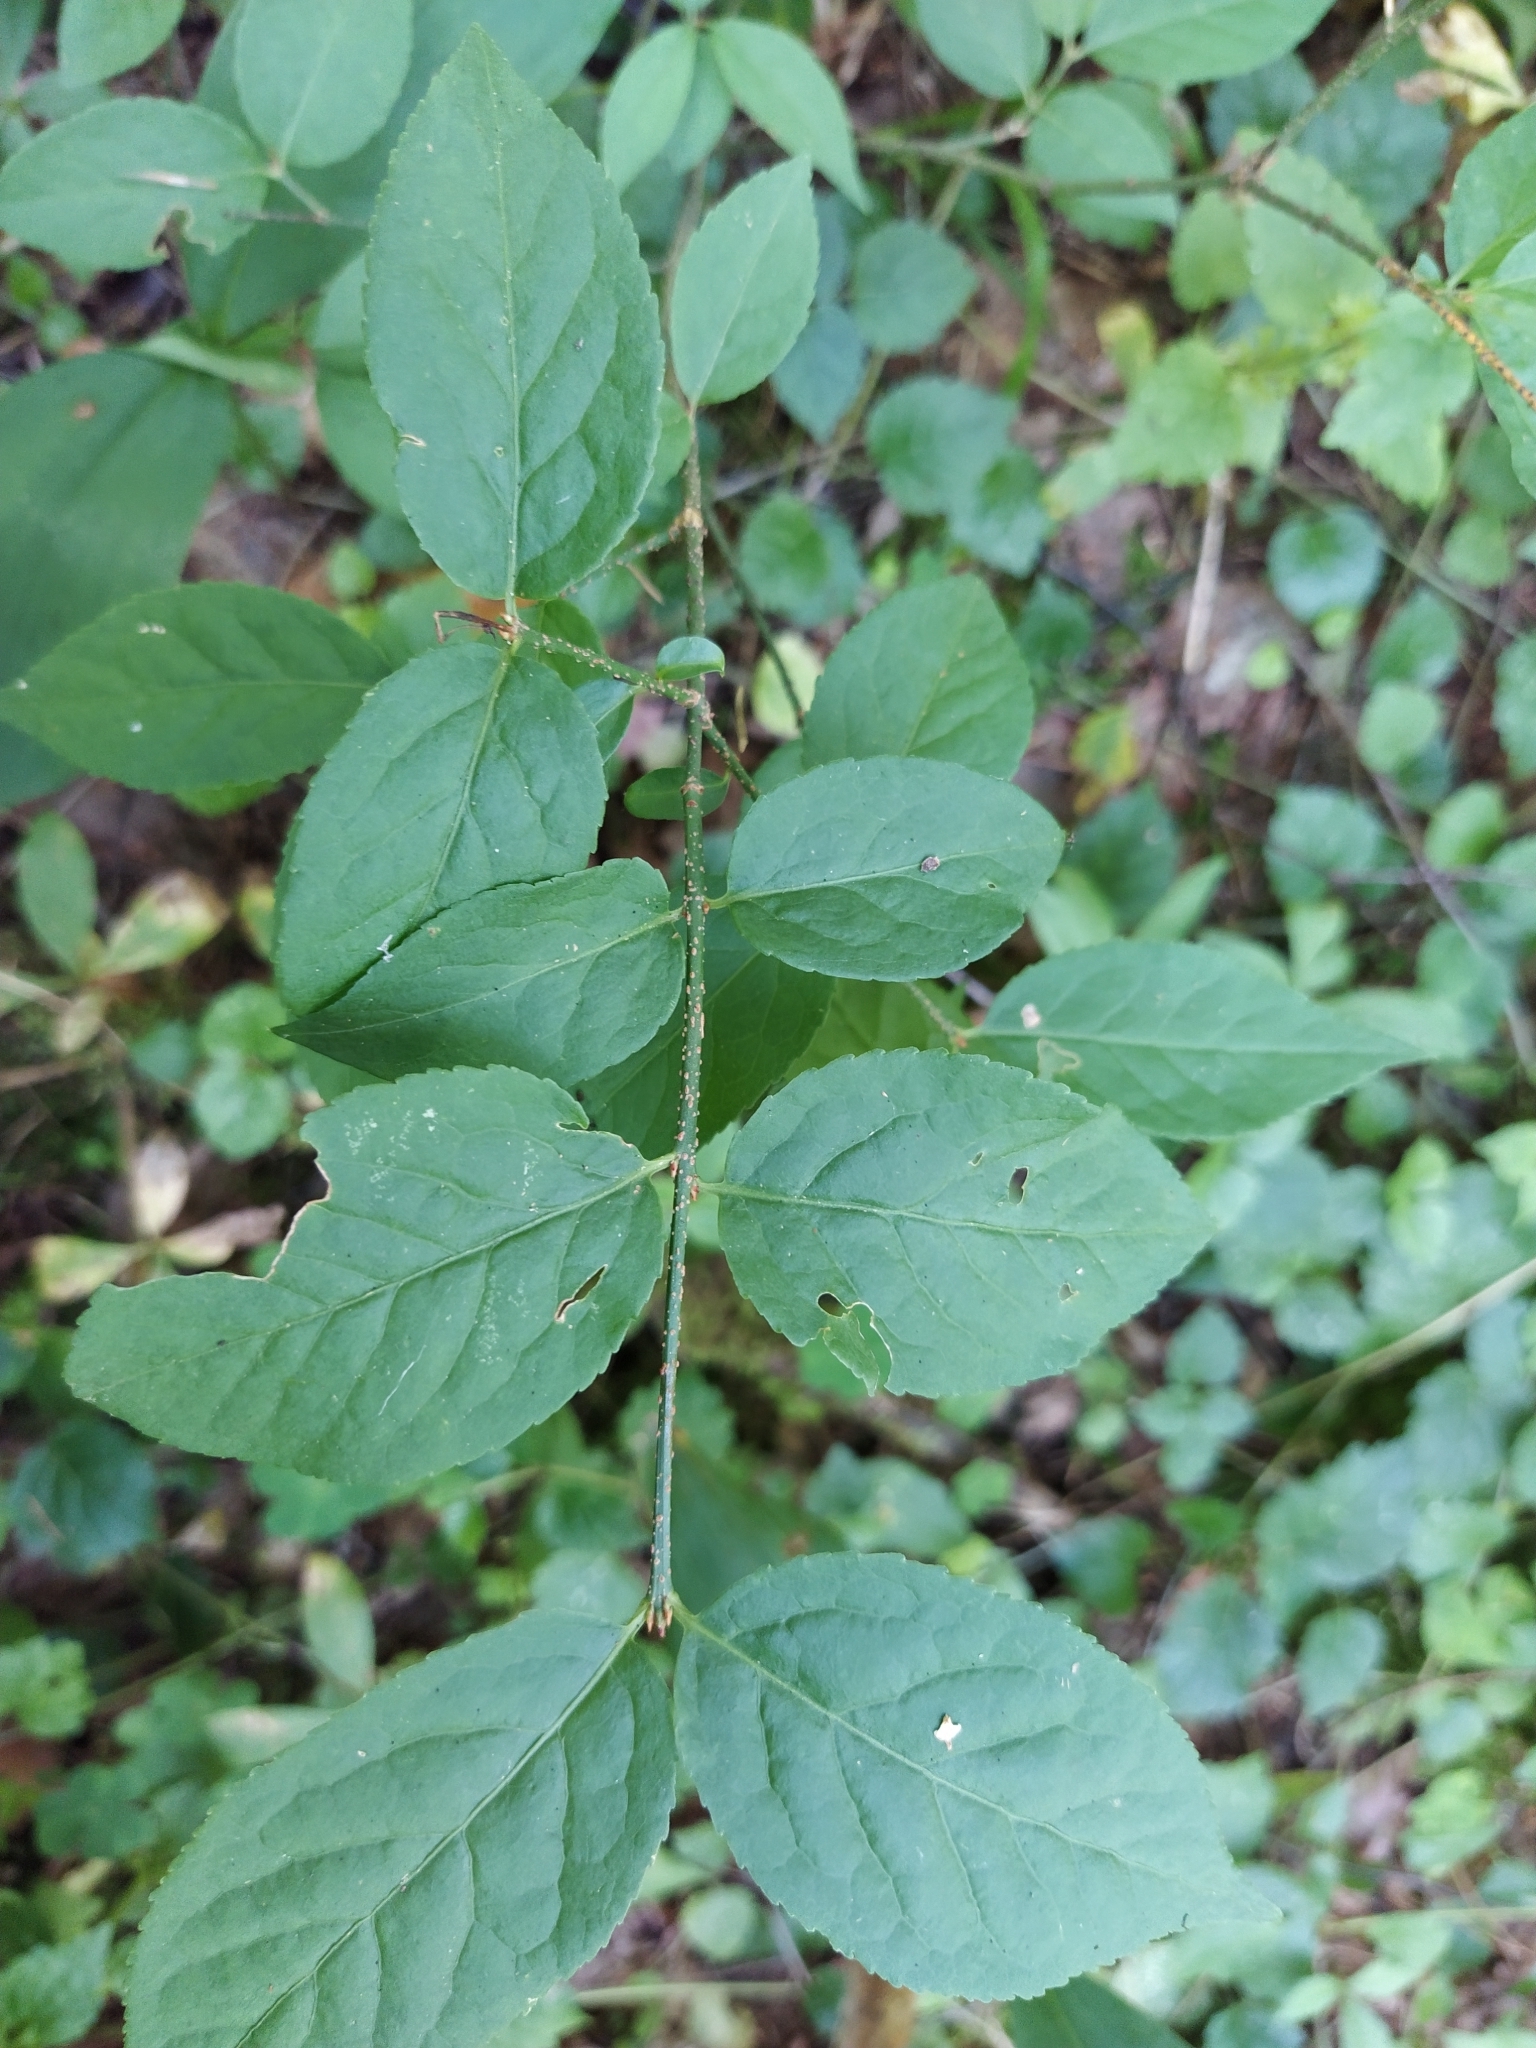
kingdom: Plantae
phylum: Tracheophyta
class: Magnoliopsida
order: Celastrales
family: Celastraceae
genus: Euonymus
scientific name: Euonymus verrucosus
